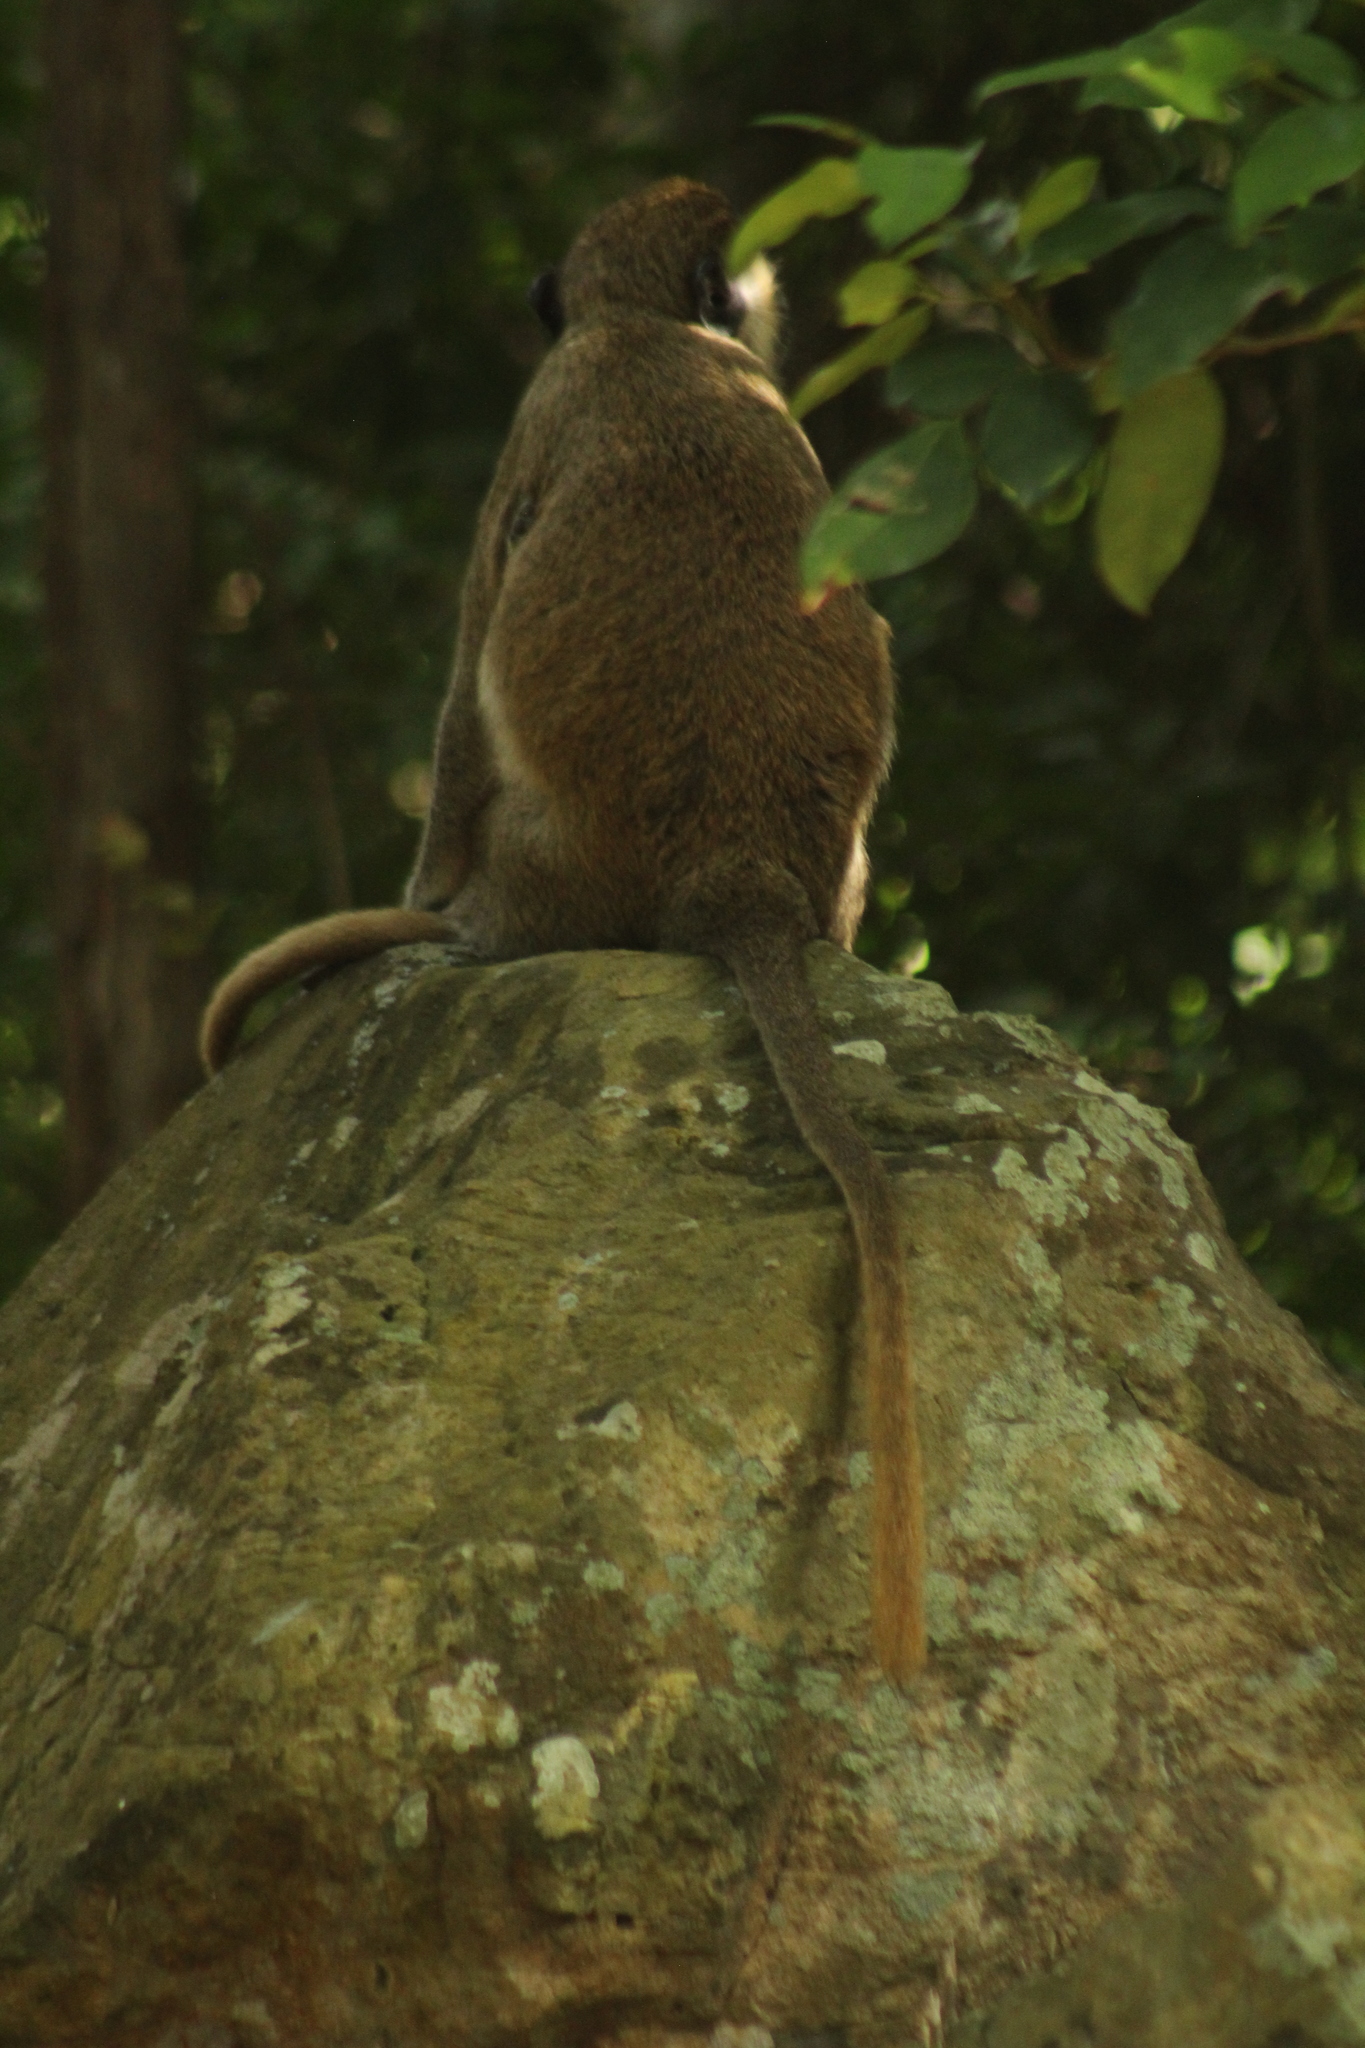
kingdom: Animalia
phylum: Chordata
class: Mammalia
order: Primates
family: Cercopithecidae
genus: Chlorocebus
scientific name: Chlorocebus sabaeus
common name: Green monkey
